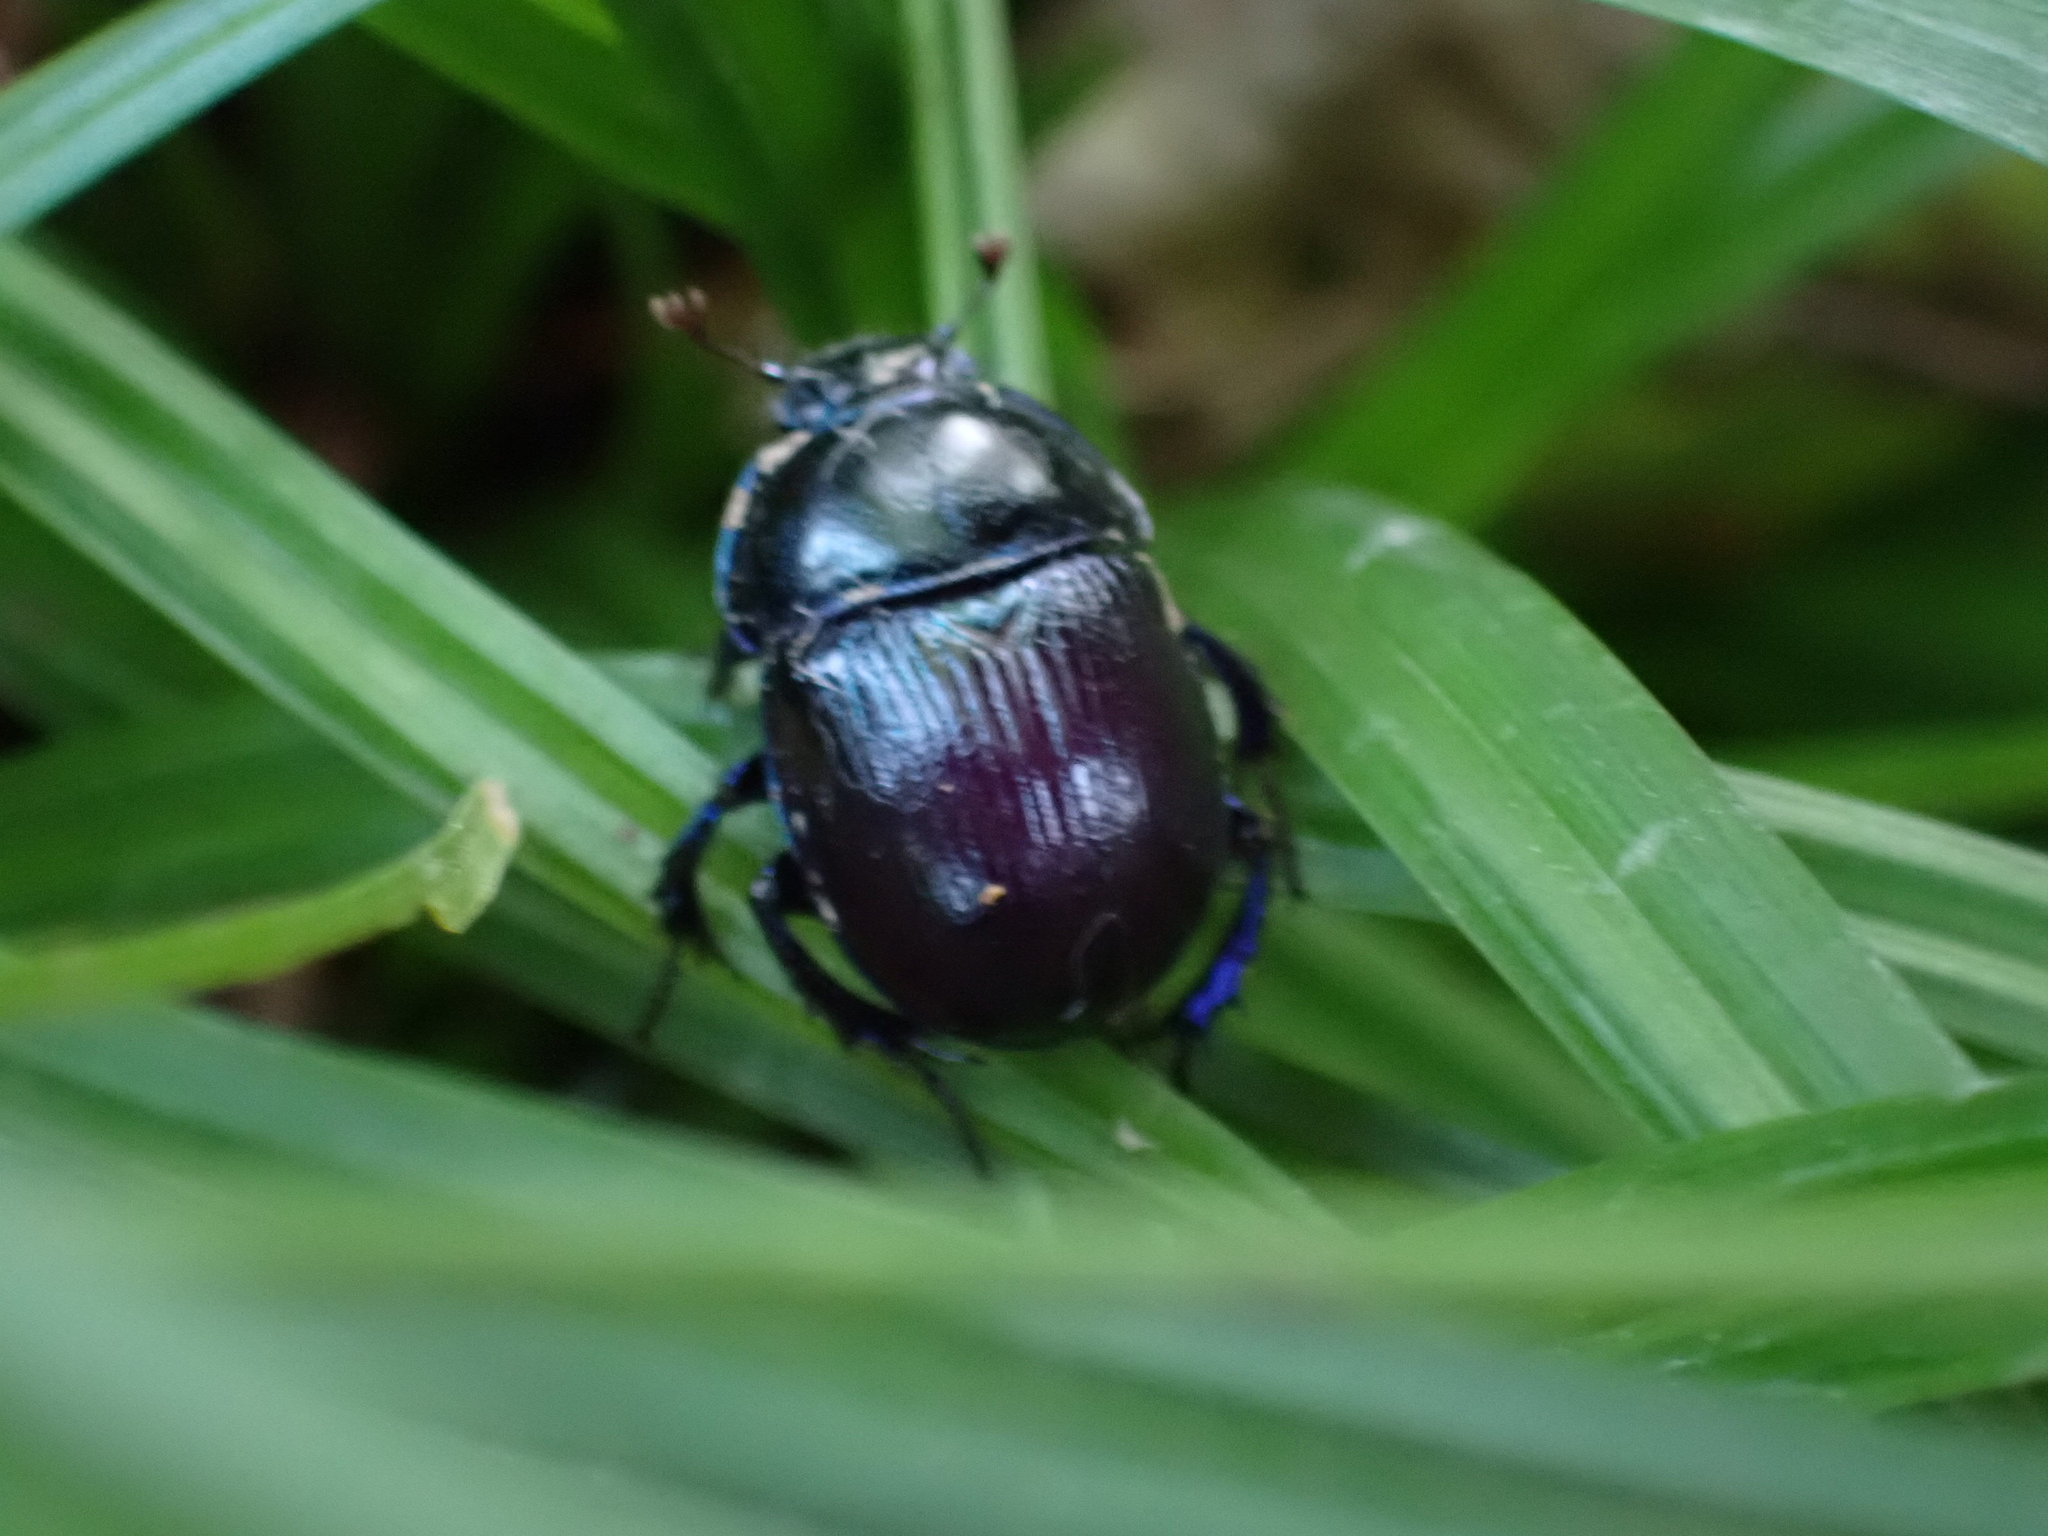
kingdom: Animalia
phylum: Arthropoda
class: Insecta
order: Coleoptera
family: Geotrupidae
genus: Anoplotrupes
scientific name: Anoplotrupes stercorosus
